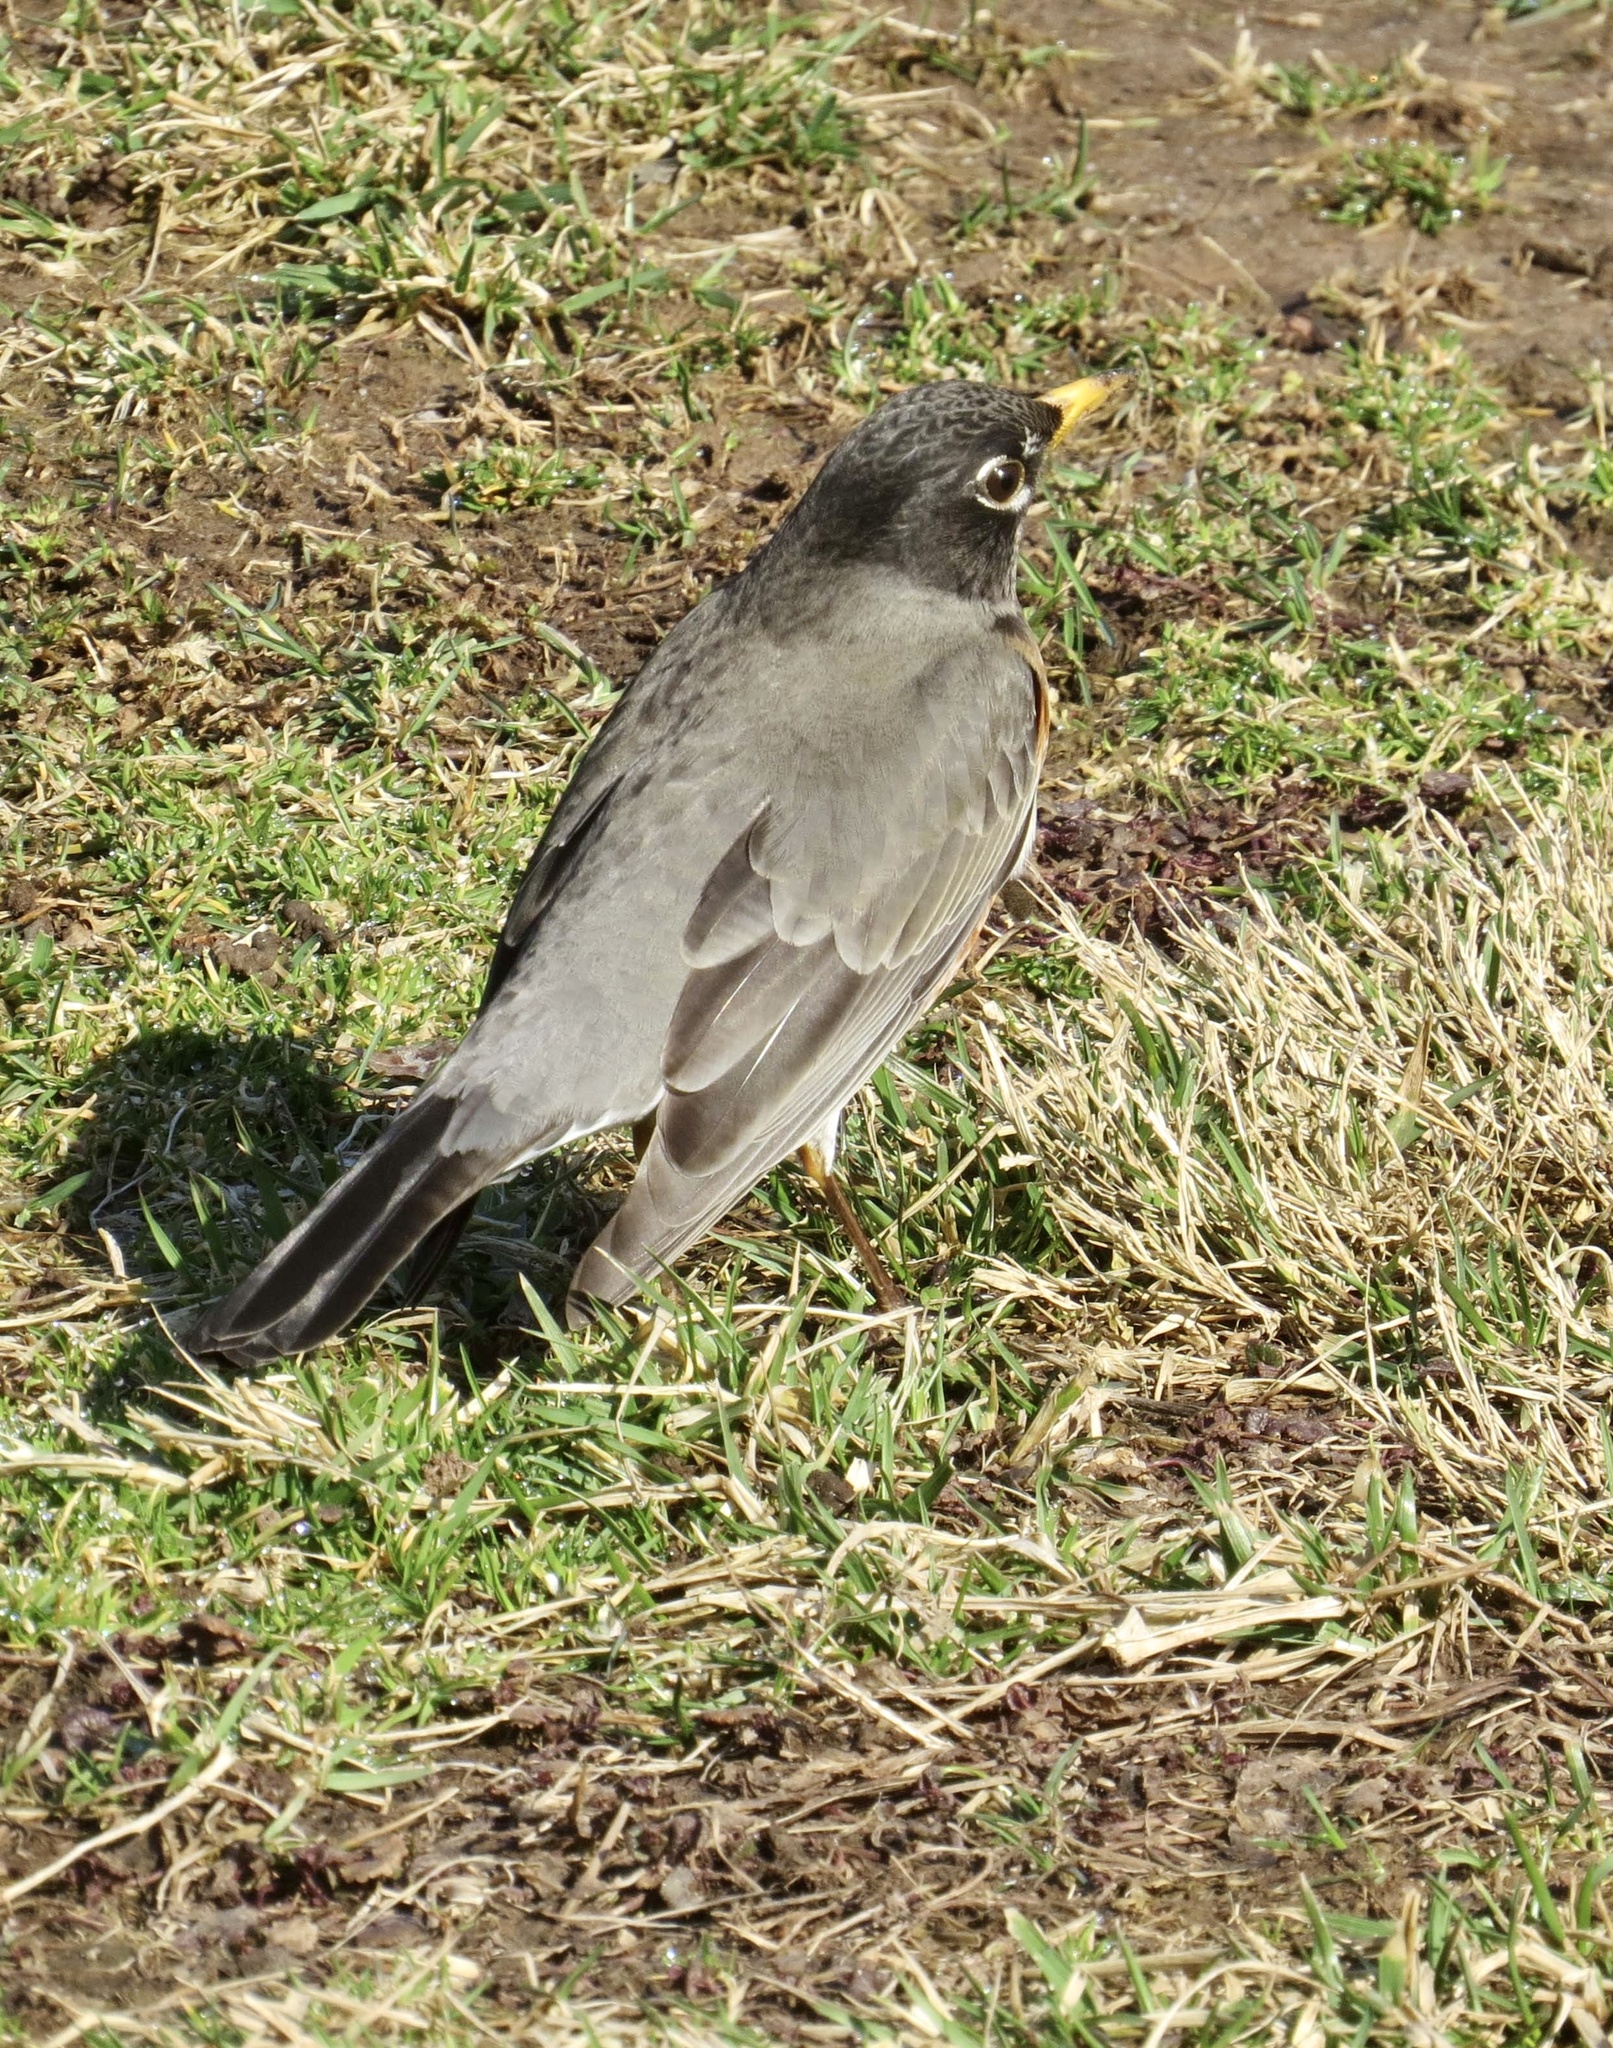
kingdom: Animalia
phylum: Chordata
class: Aves
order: Passeriformes
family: Turdidae
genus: Turdus
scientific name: Turdus migratorius
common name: American robin
